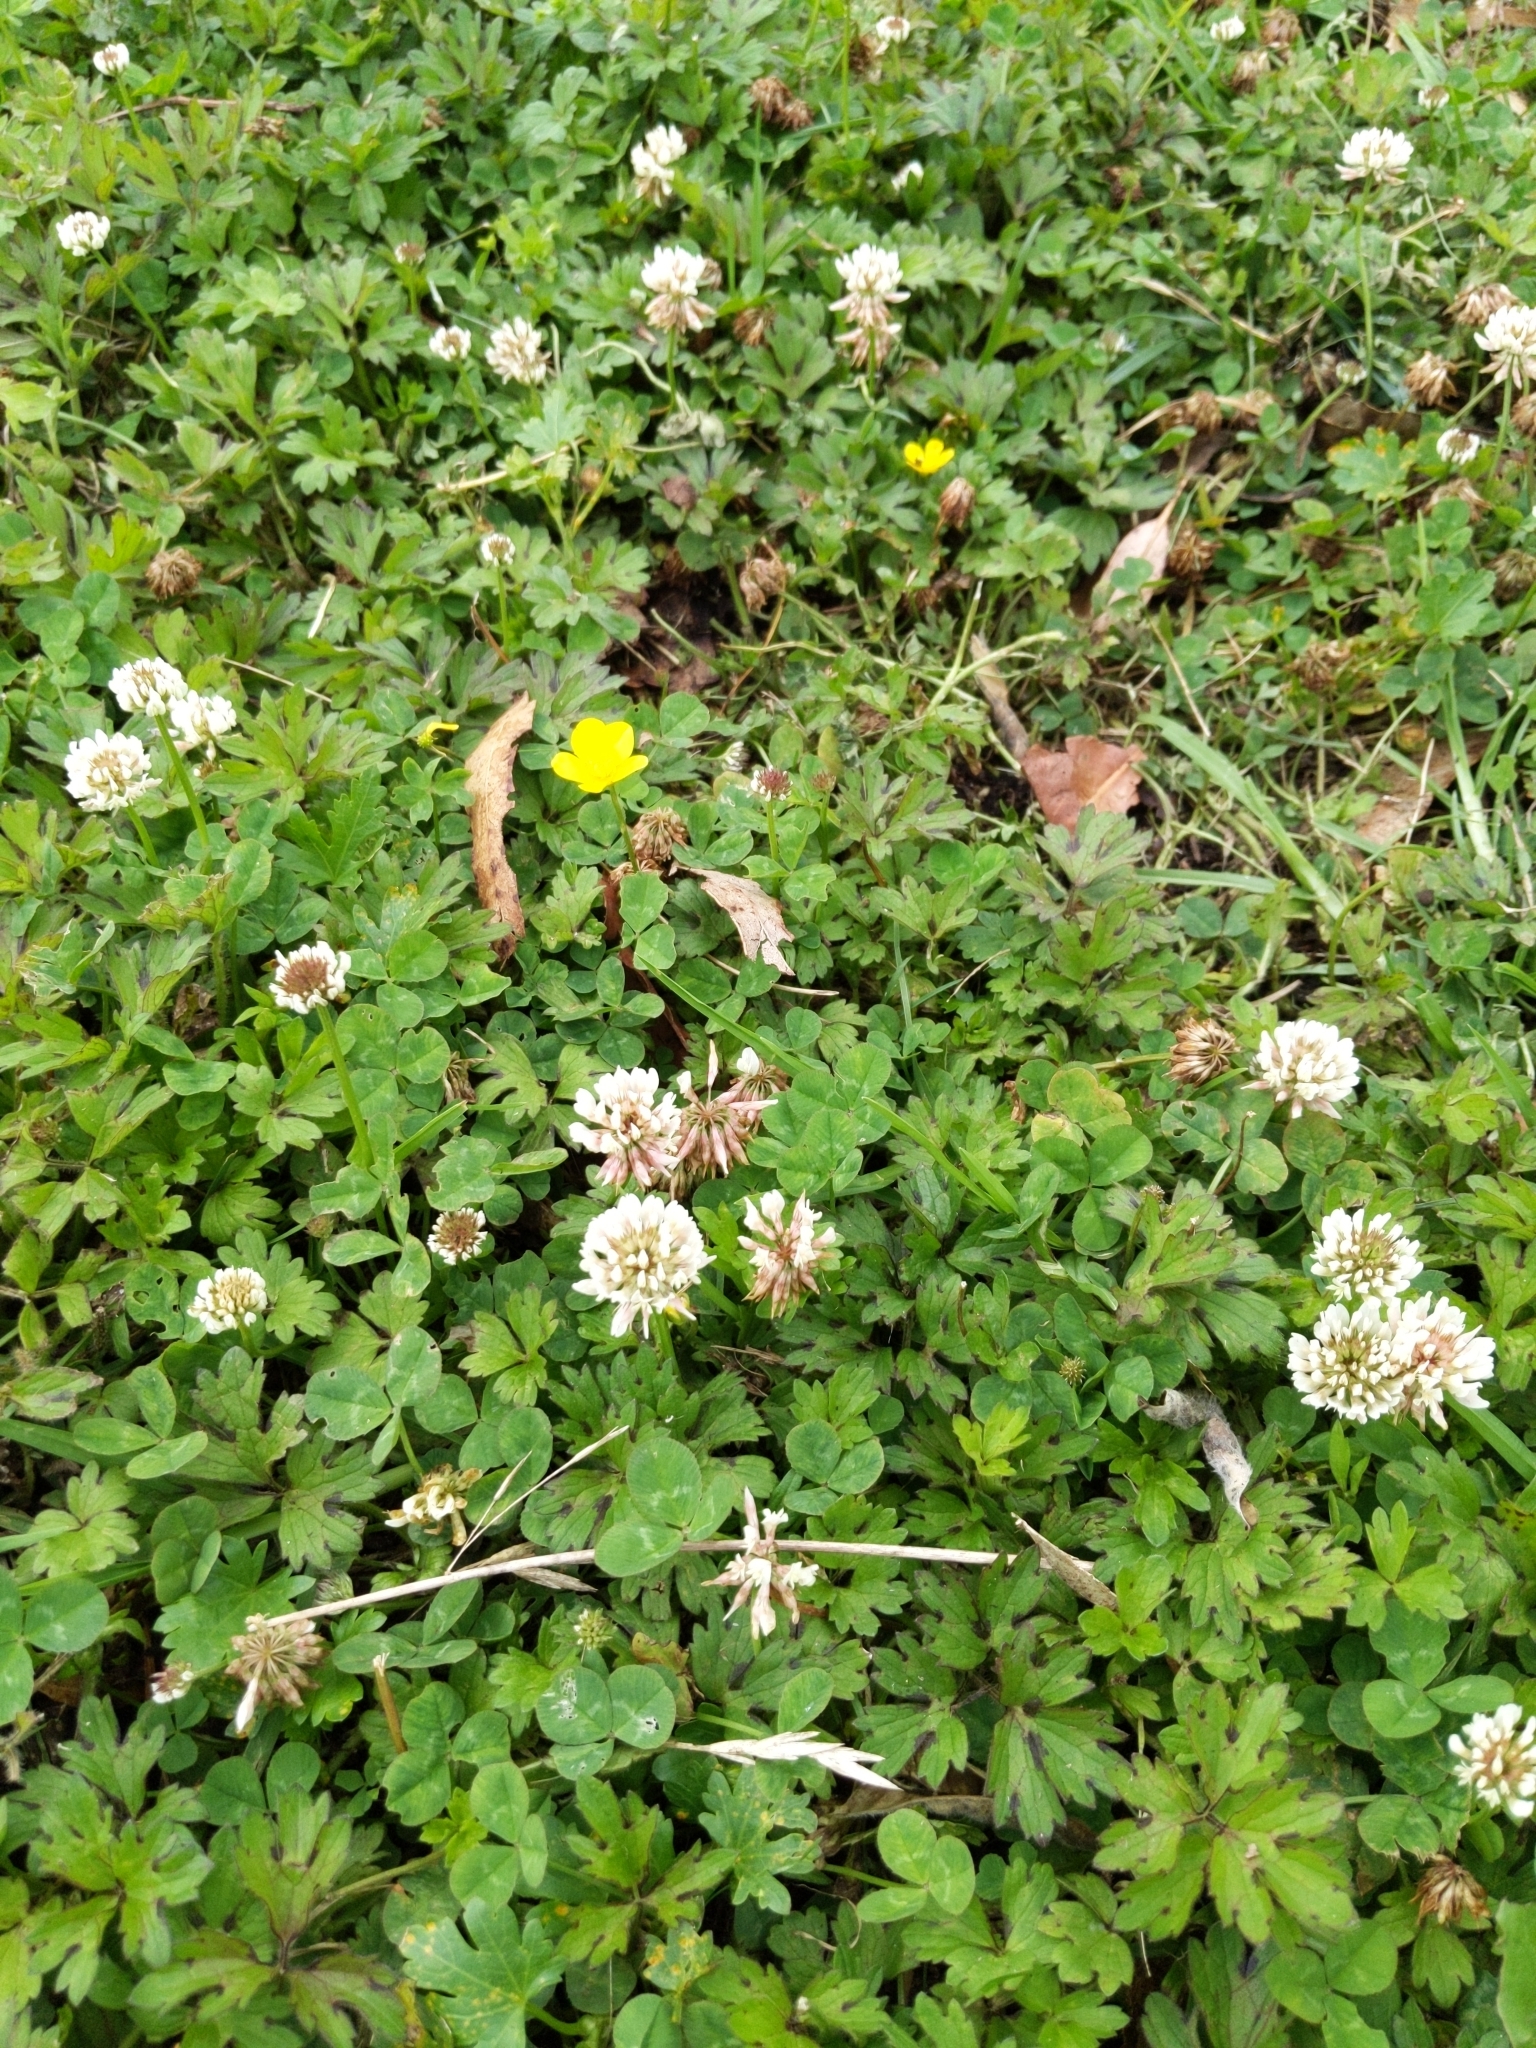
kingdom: Plantae
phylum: Tracheophyta
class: Magnoliopsida
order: Fabales
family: Fabaceae
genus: Trifolium
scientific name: Trifolium repens
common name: White clover
